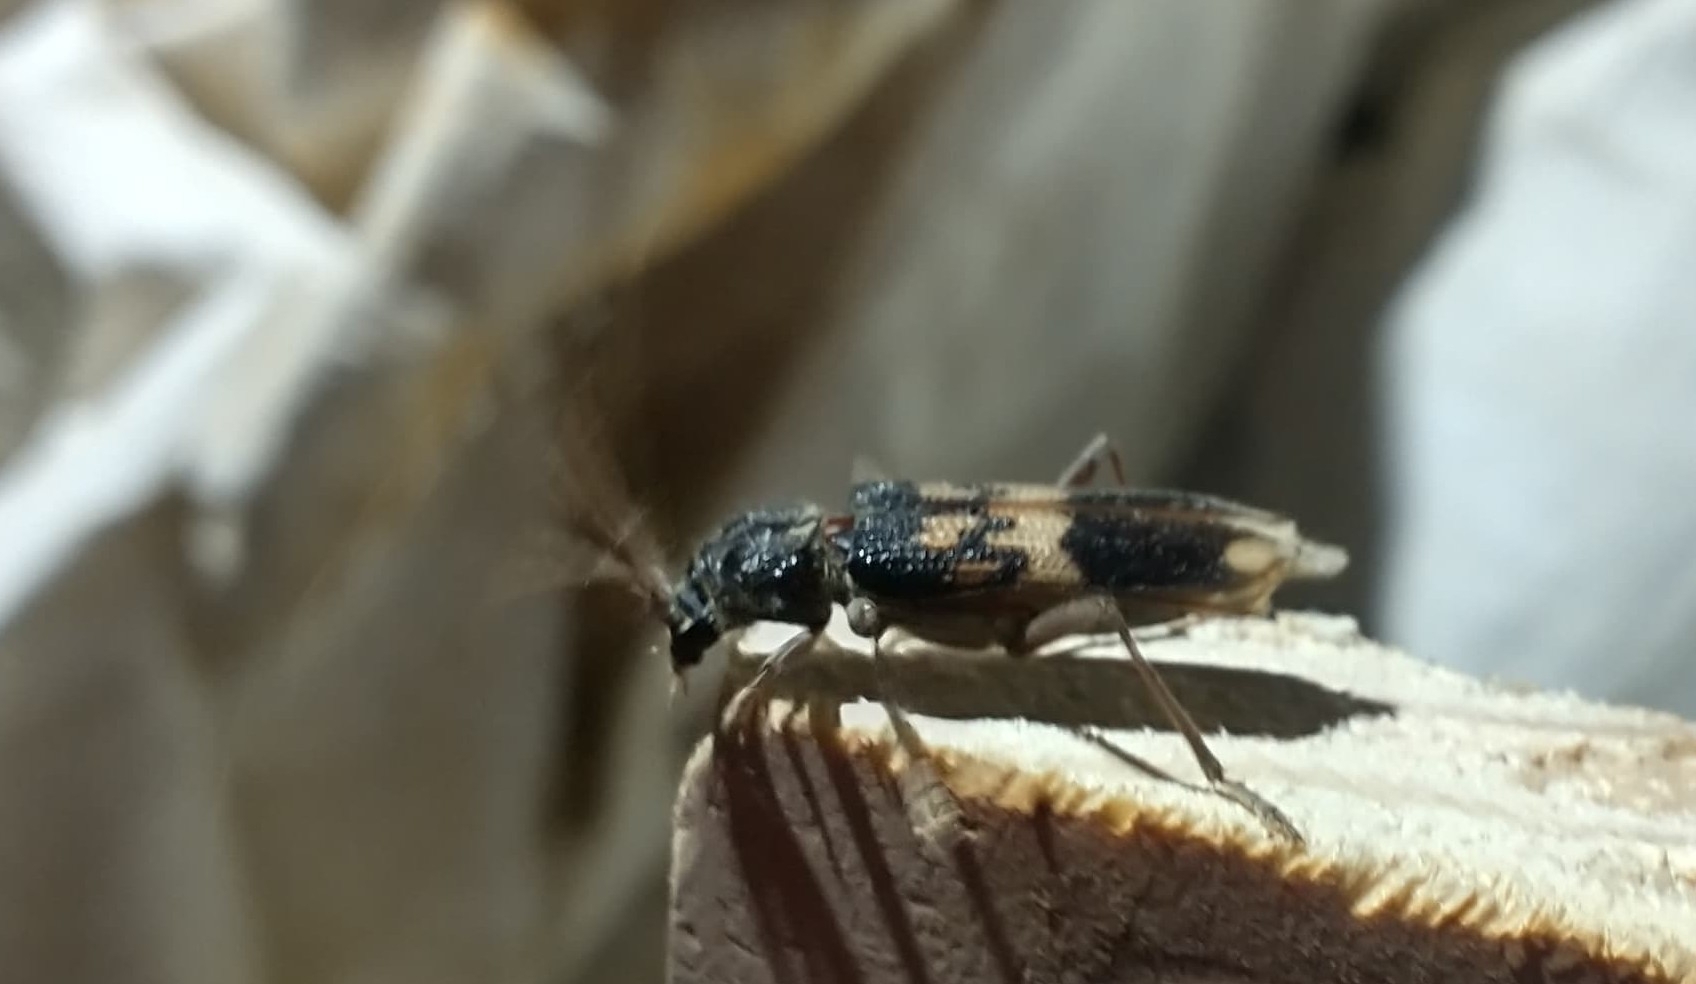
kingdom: Animalia
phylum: Arthropoda
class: Insecta
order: Coleoptera
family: Cerambycidae
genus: Phoracantha
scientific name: Phoracantha semipunctata
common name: Eucalyptus longhorn borer
